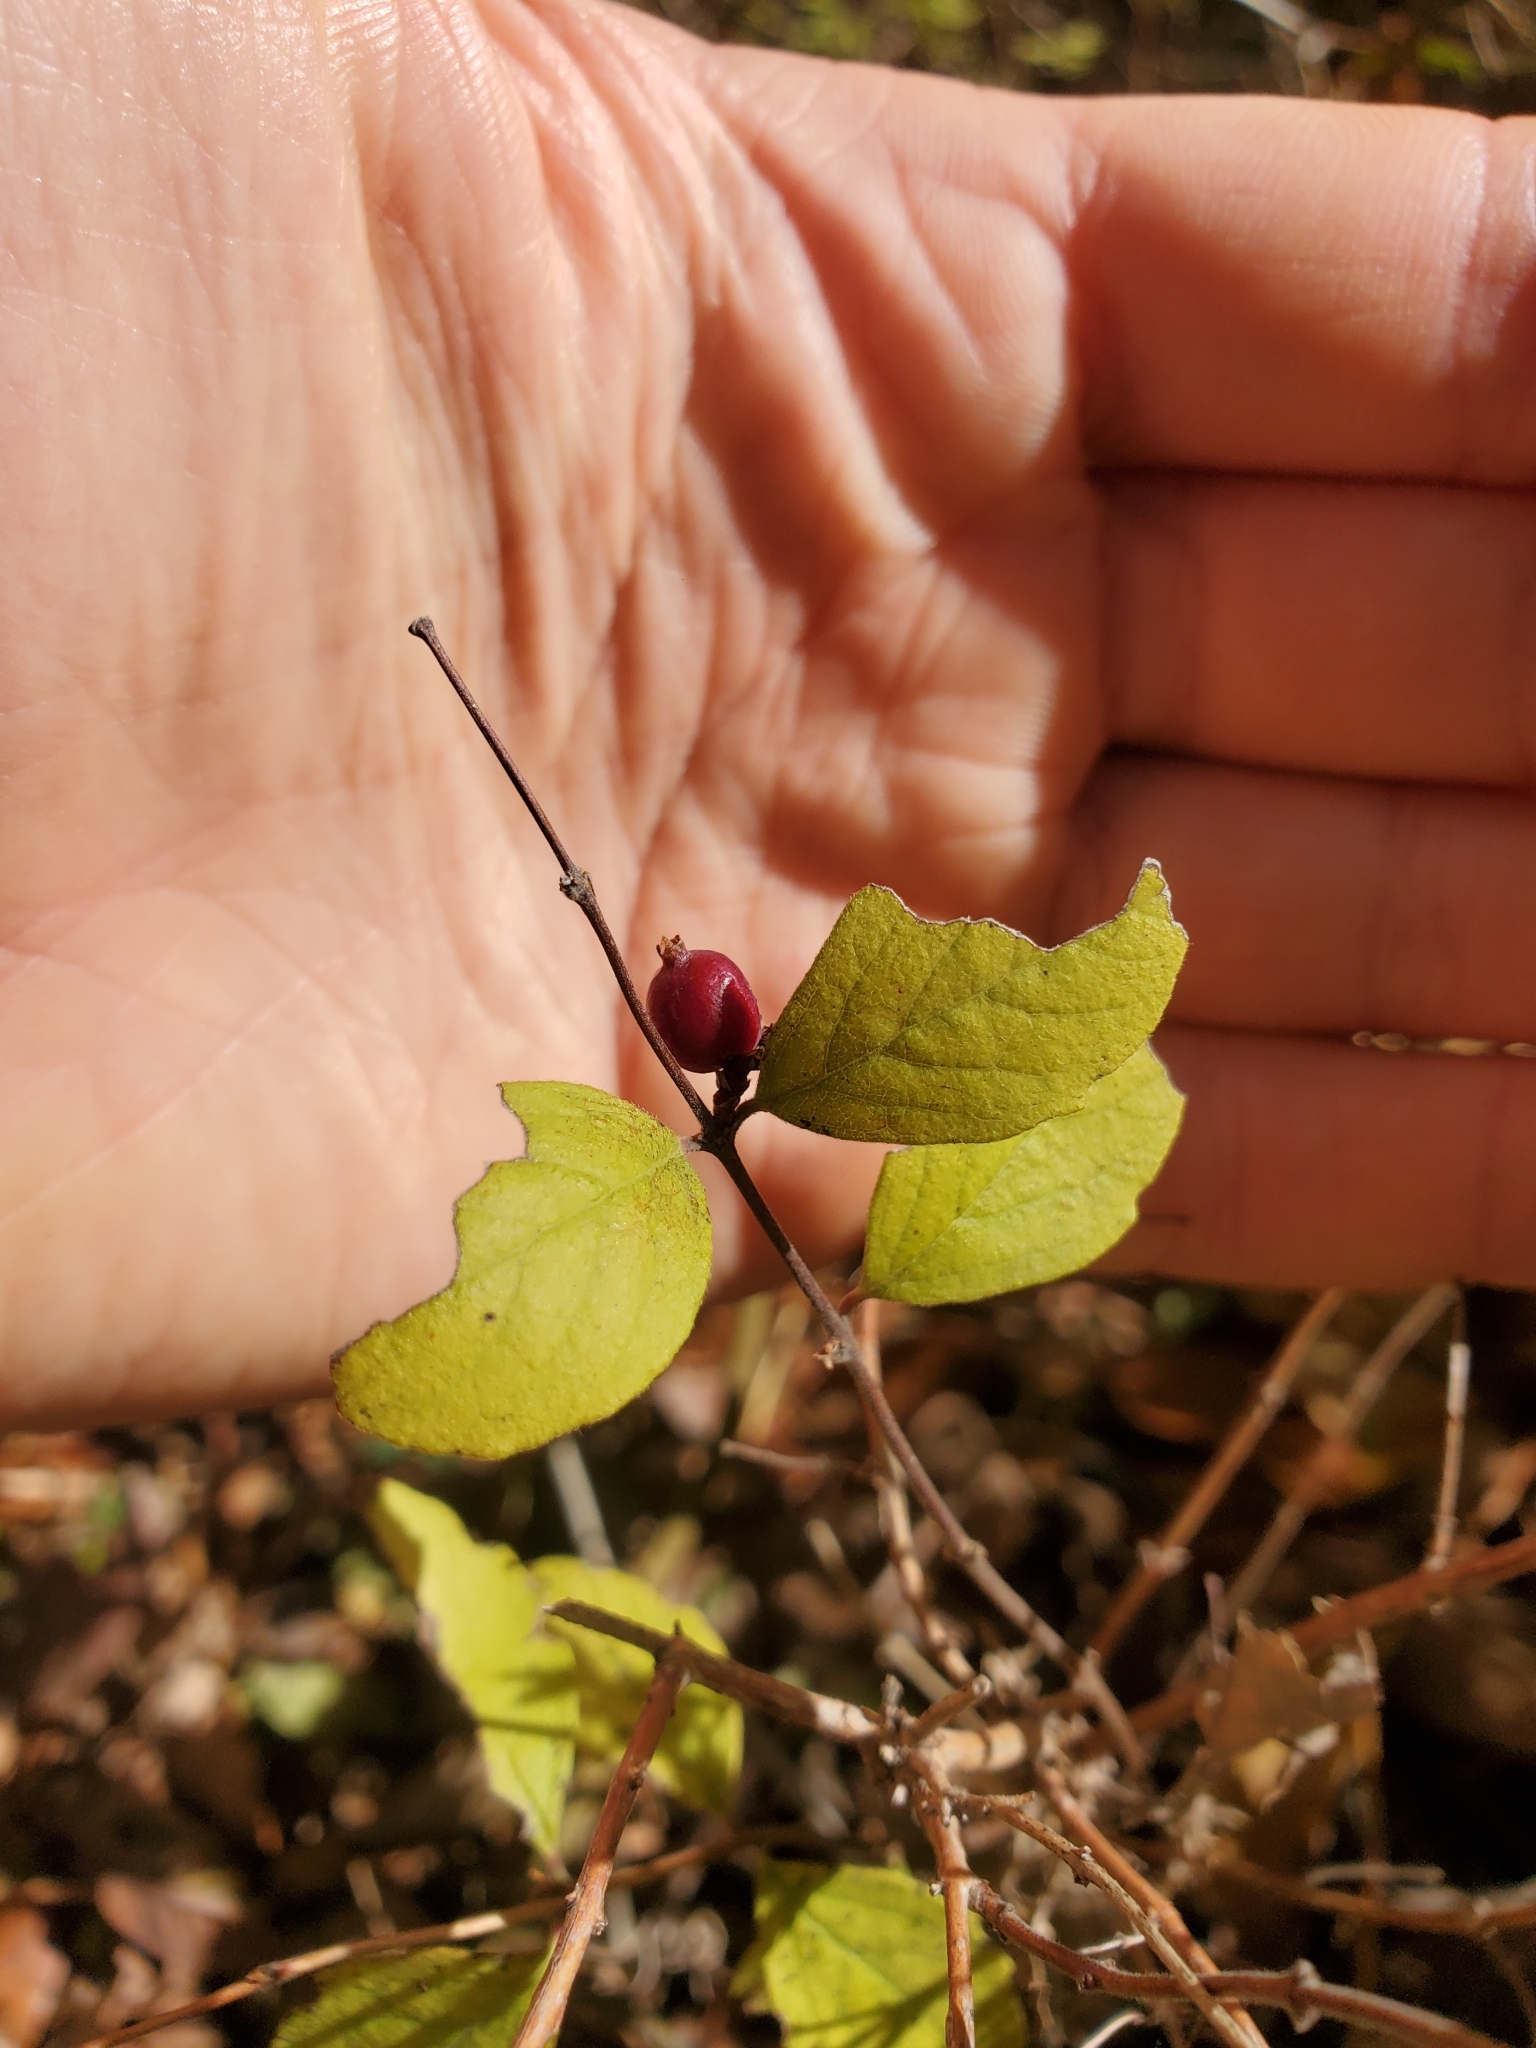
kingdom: Plantae
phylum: Tracheophyta
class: Magnoliopsida
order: Dipsacales
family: Caprifoliaceae
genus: Symphoricarpos
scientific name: Symphoricarpos orbiculatus
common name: Coralberry
